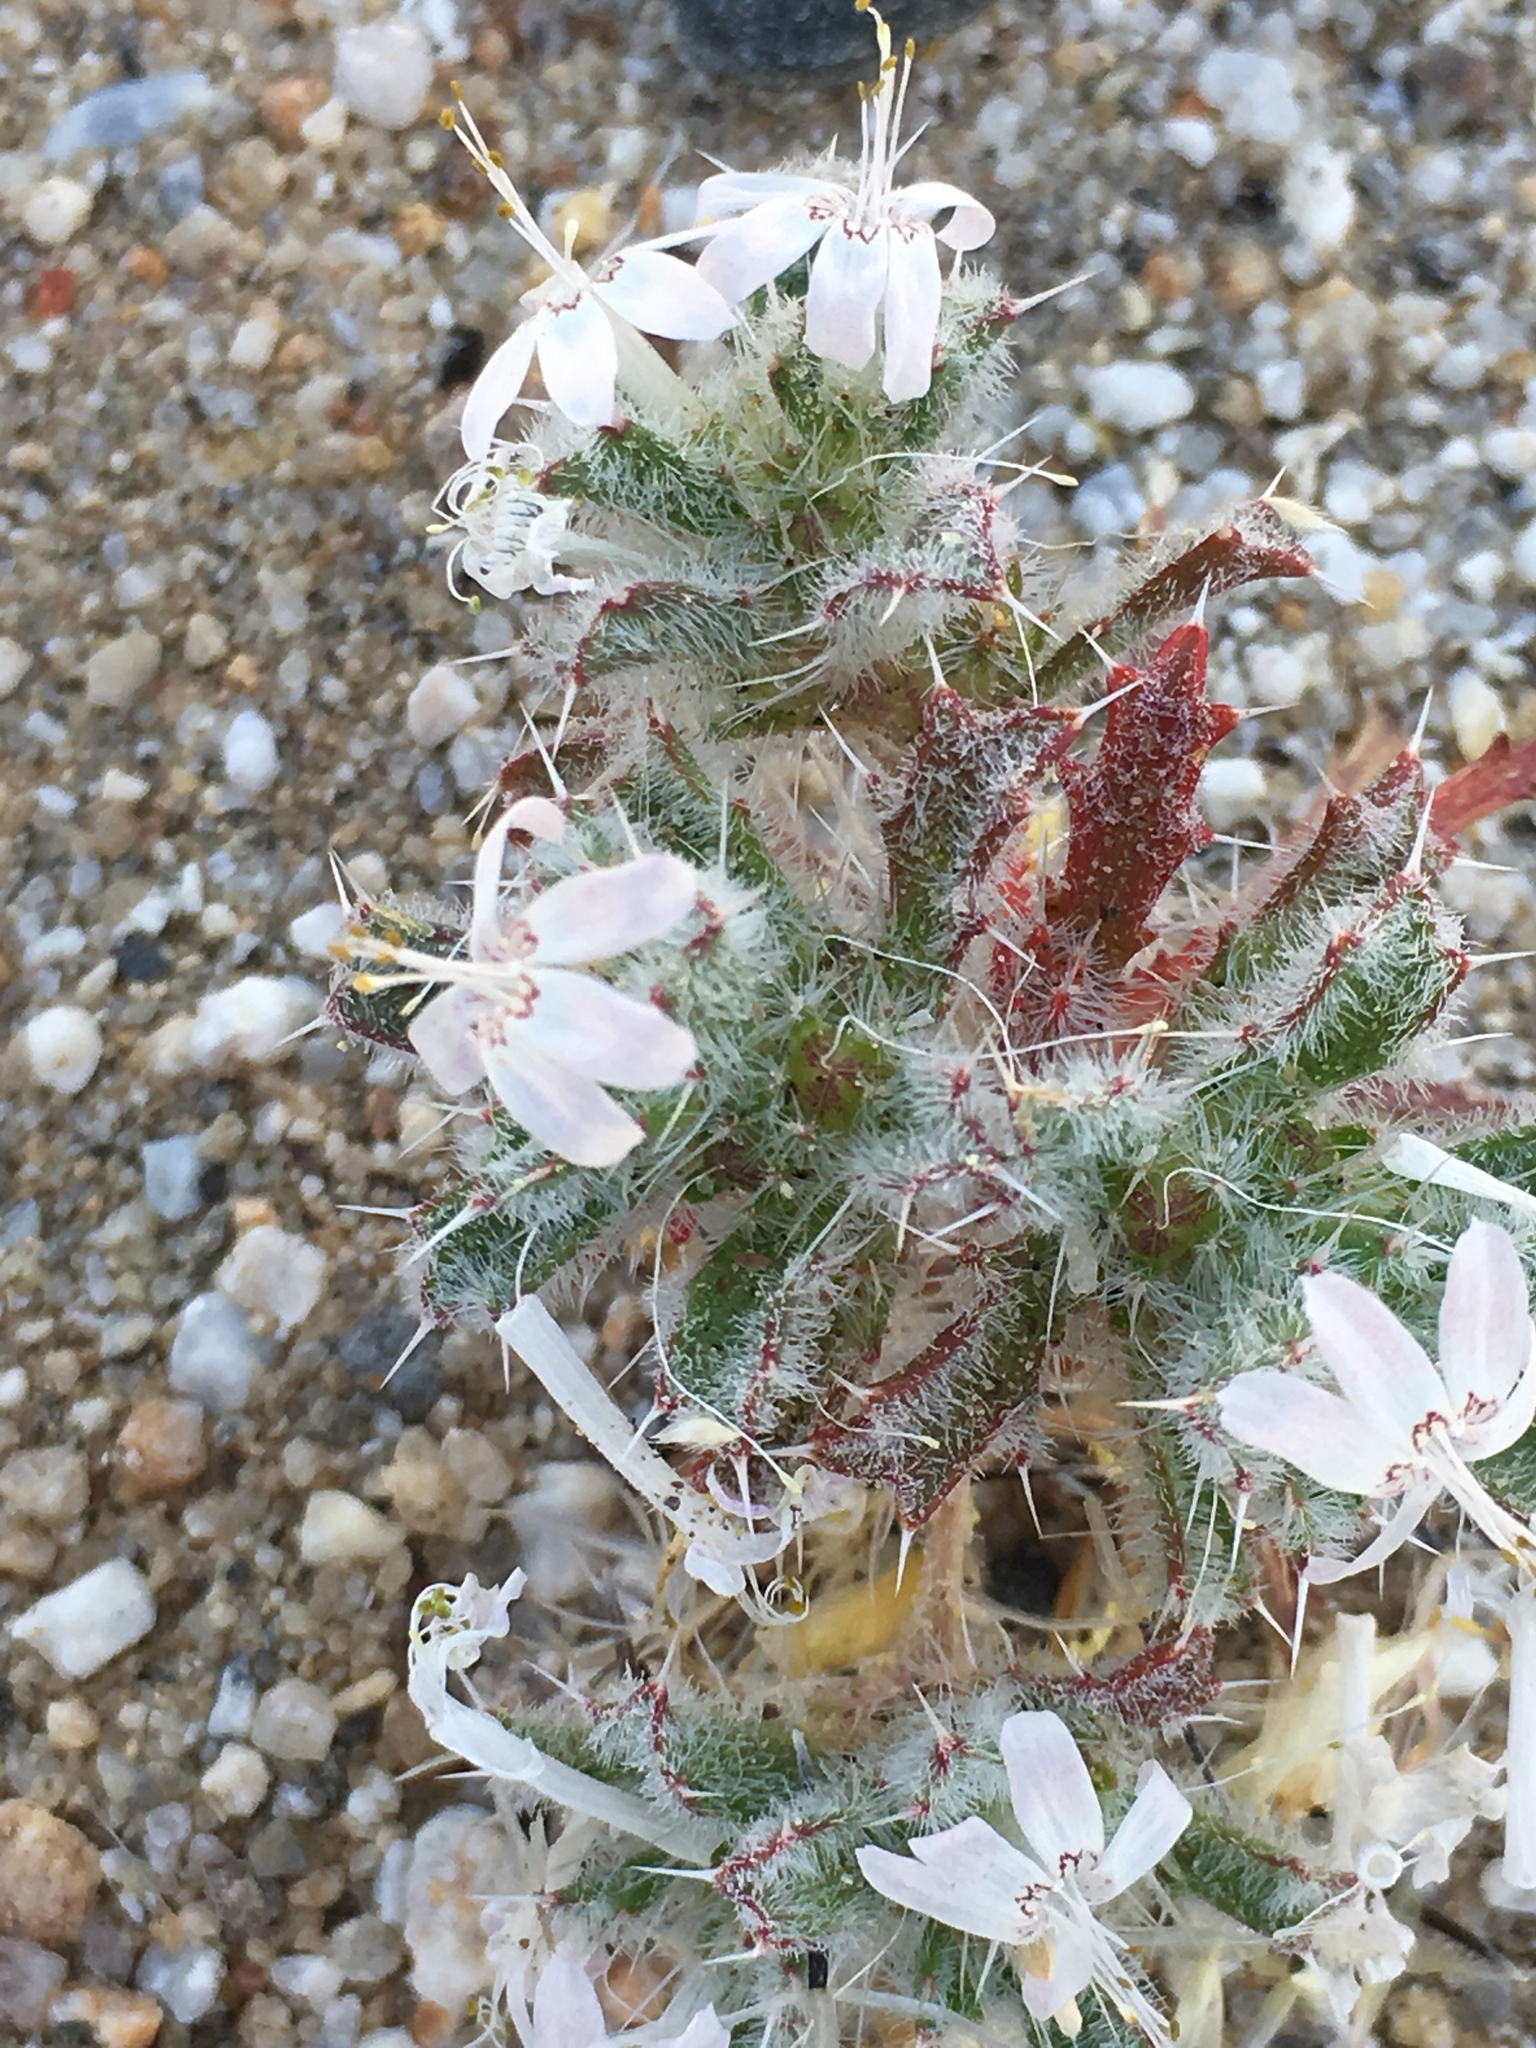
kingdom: Plantae
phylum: Tracheophyta
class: Magnoliopsida
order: Ericales
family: Polemoniaceae
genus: Loeseliastrum
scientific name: Loeseliastrum matthewsii
